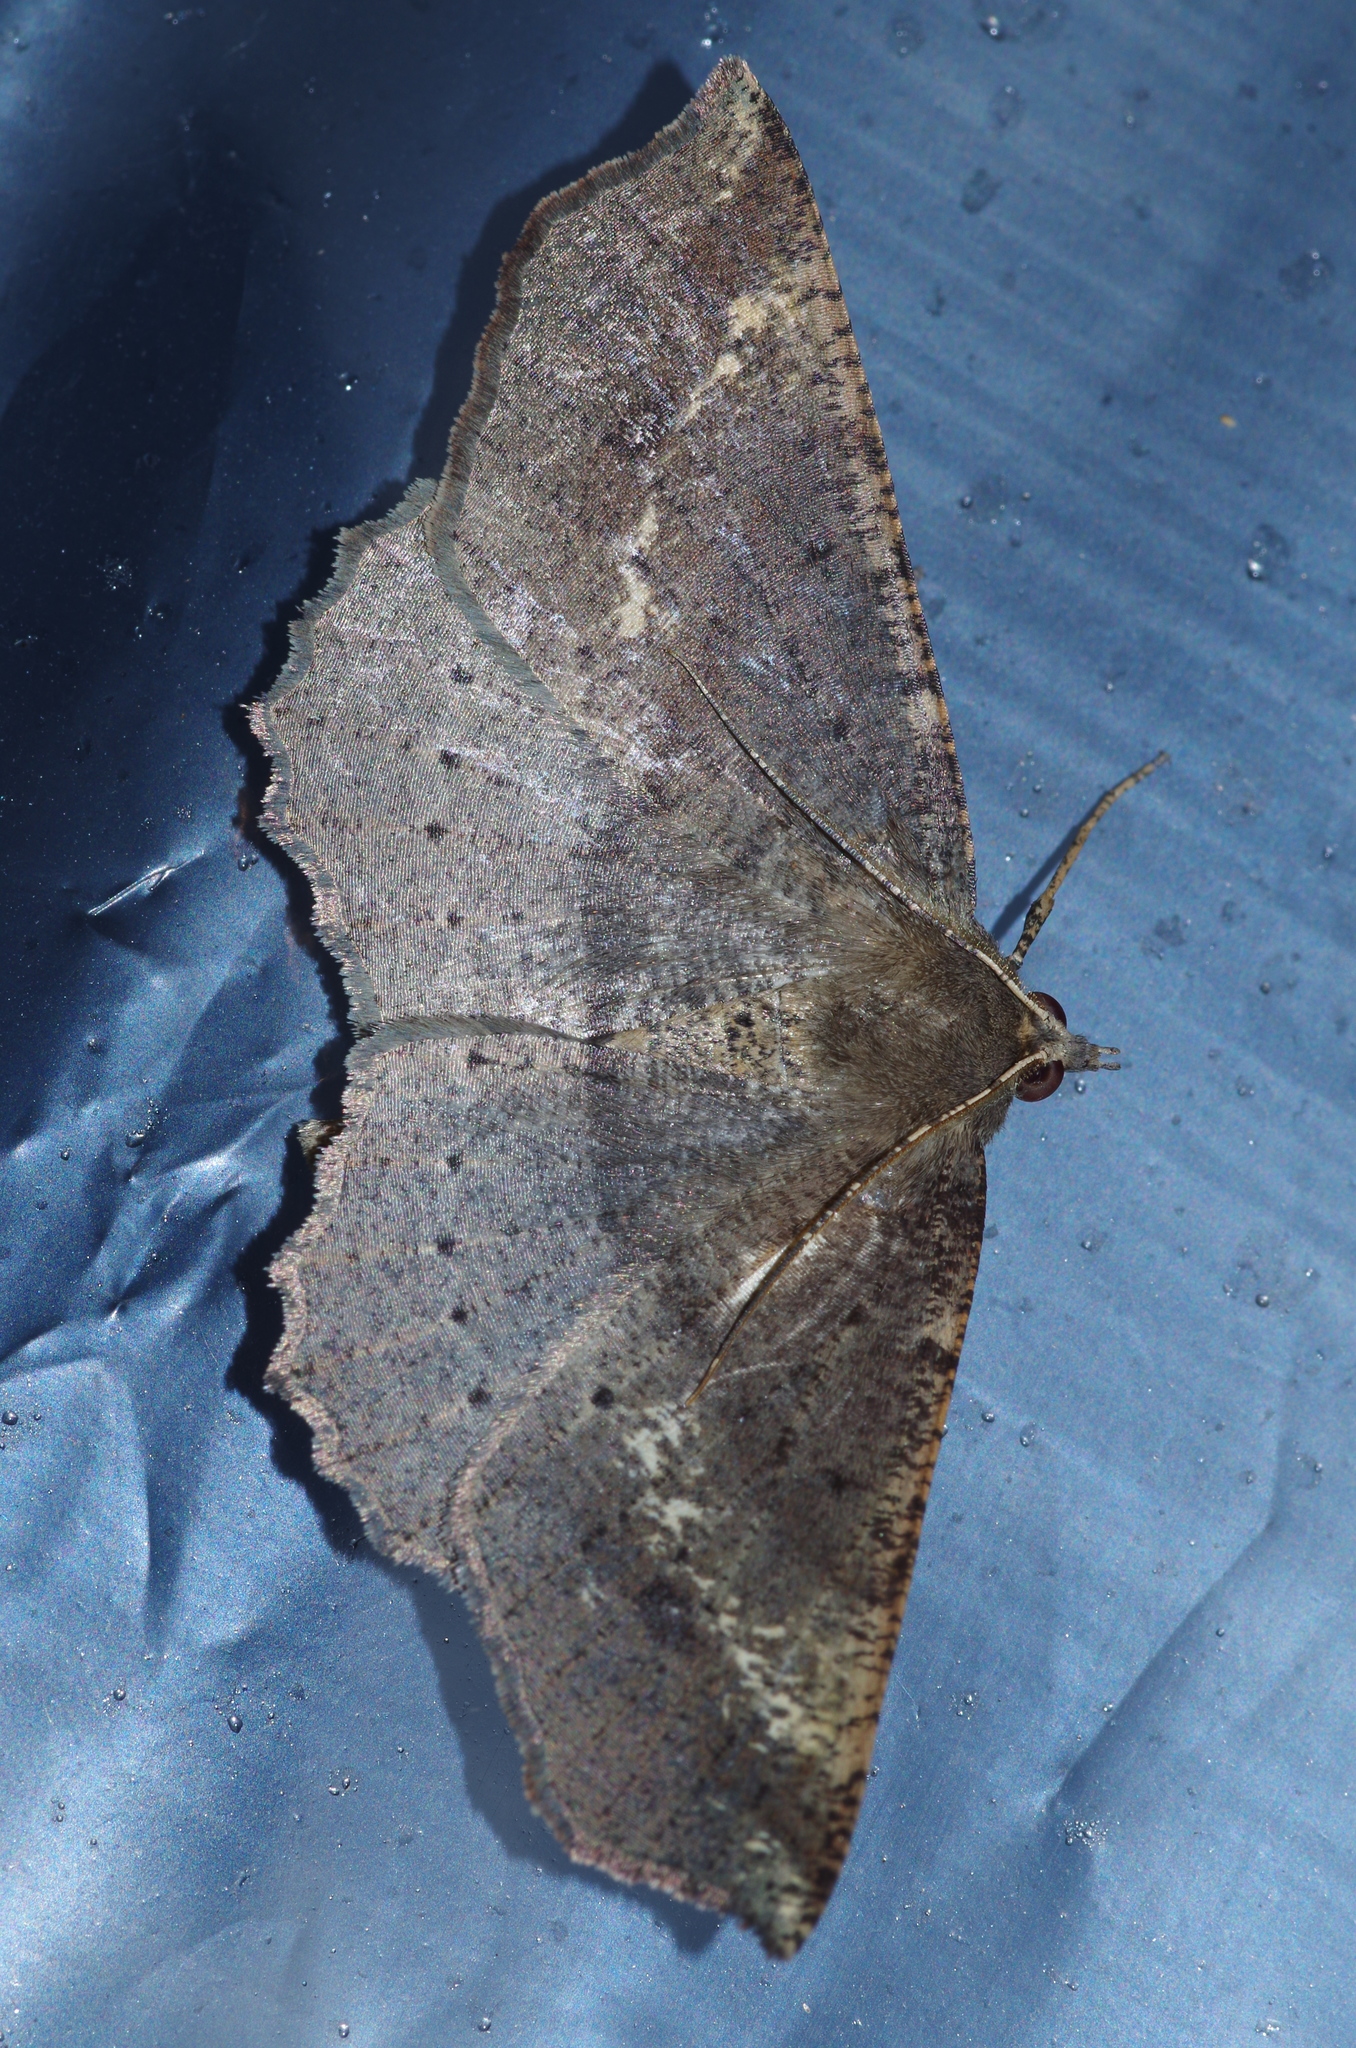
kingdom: Animalia
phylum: Arthropoda
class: Insecta
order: Lepidoptera
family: Geometridae
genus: Xerodes
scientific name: Xerodes albonotaria
